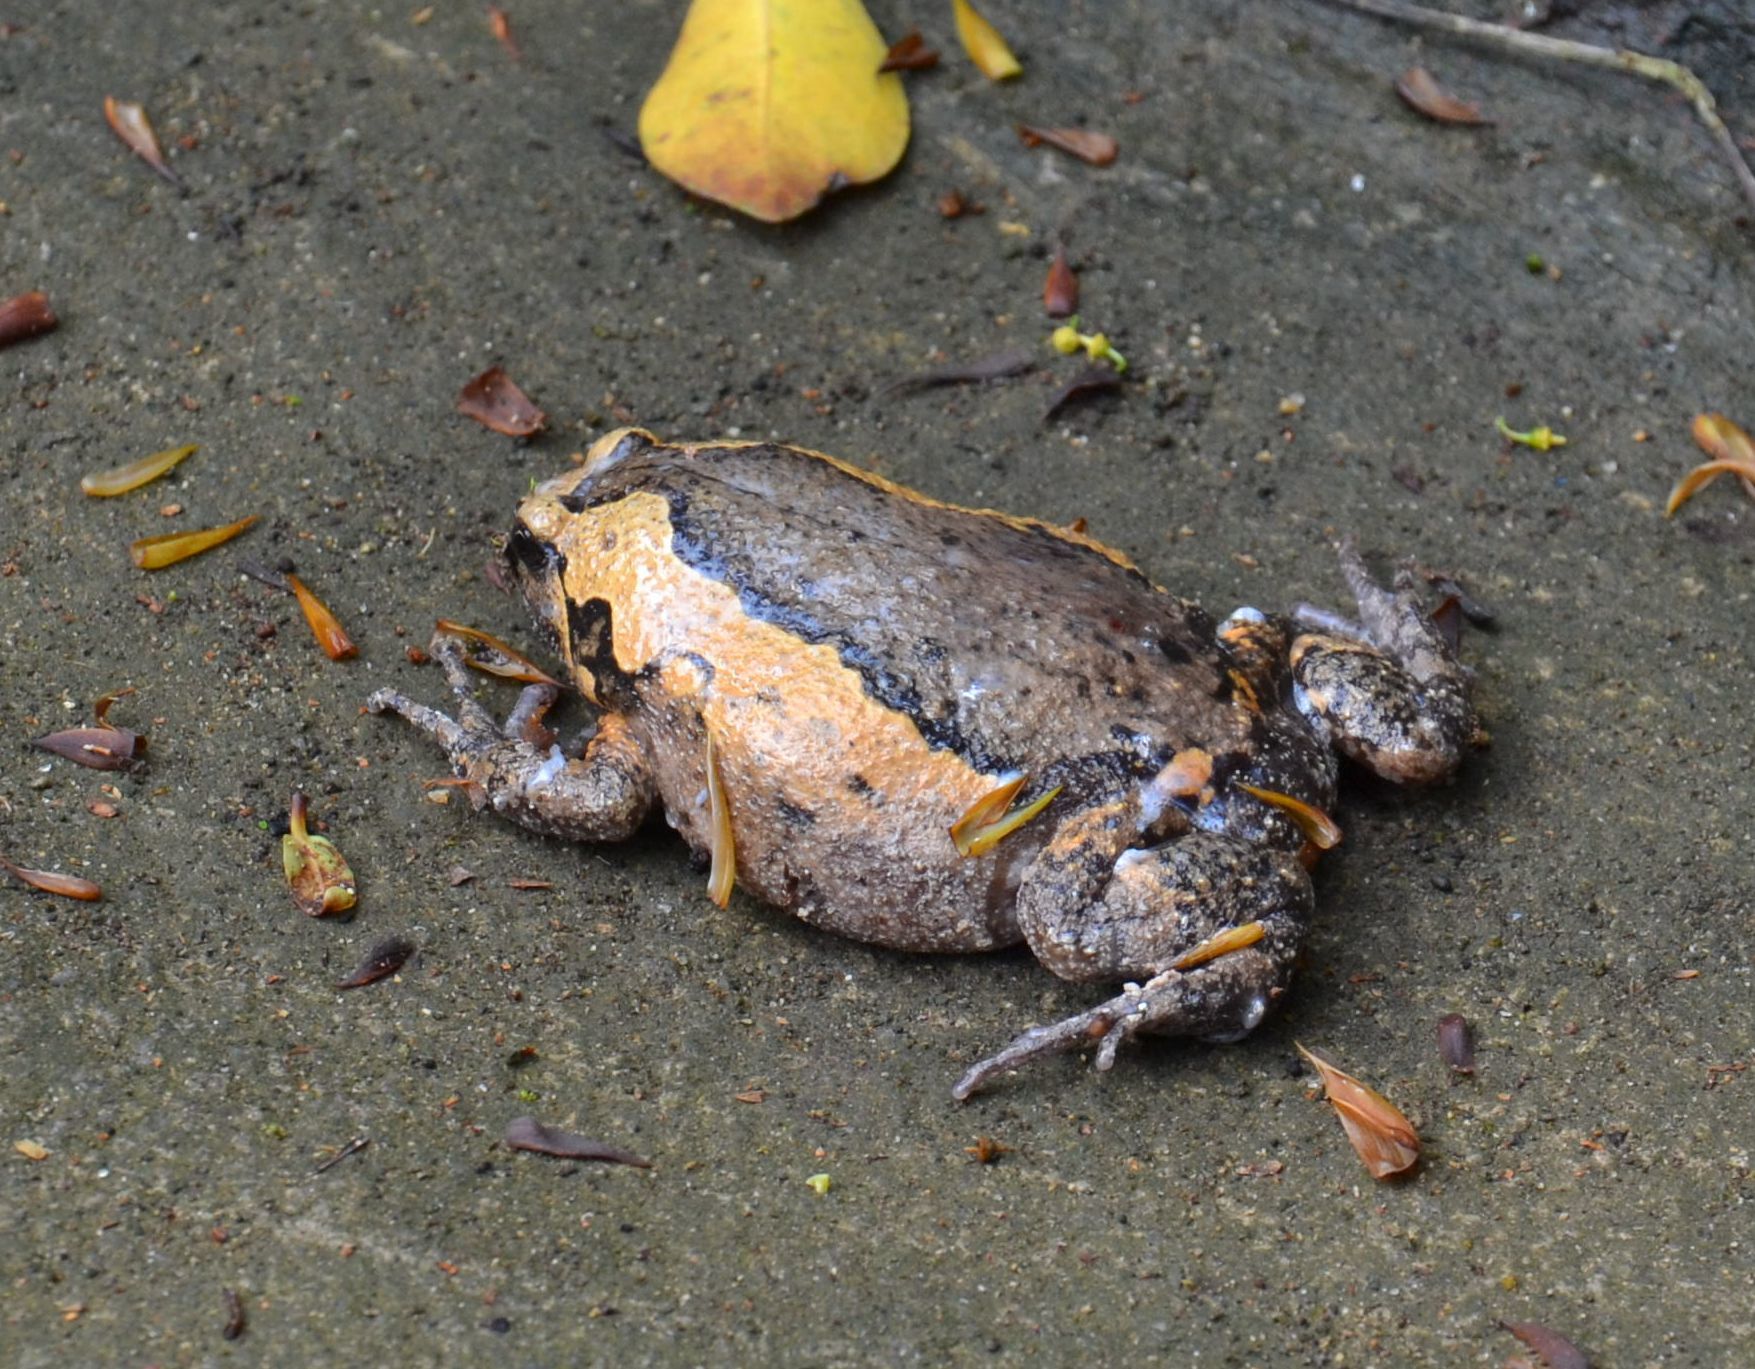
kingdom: Animalia
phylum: Chordata
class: Amphibia
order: Anura
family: Microhylidae
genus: Kaloula
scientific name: Kaloula pulchra
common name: Common,banded bullfrog
